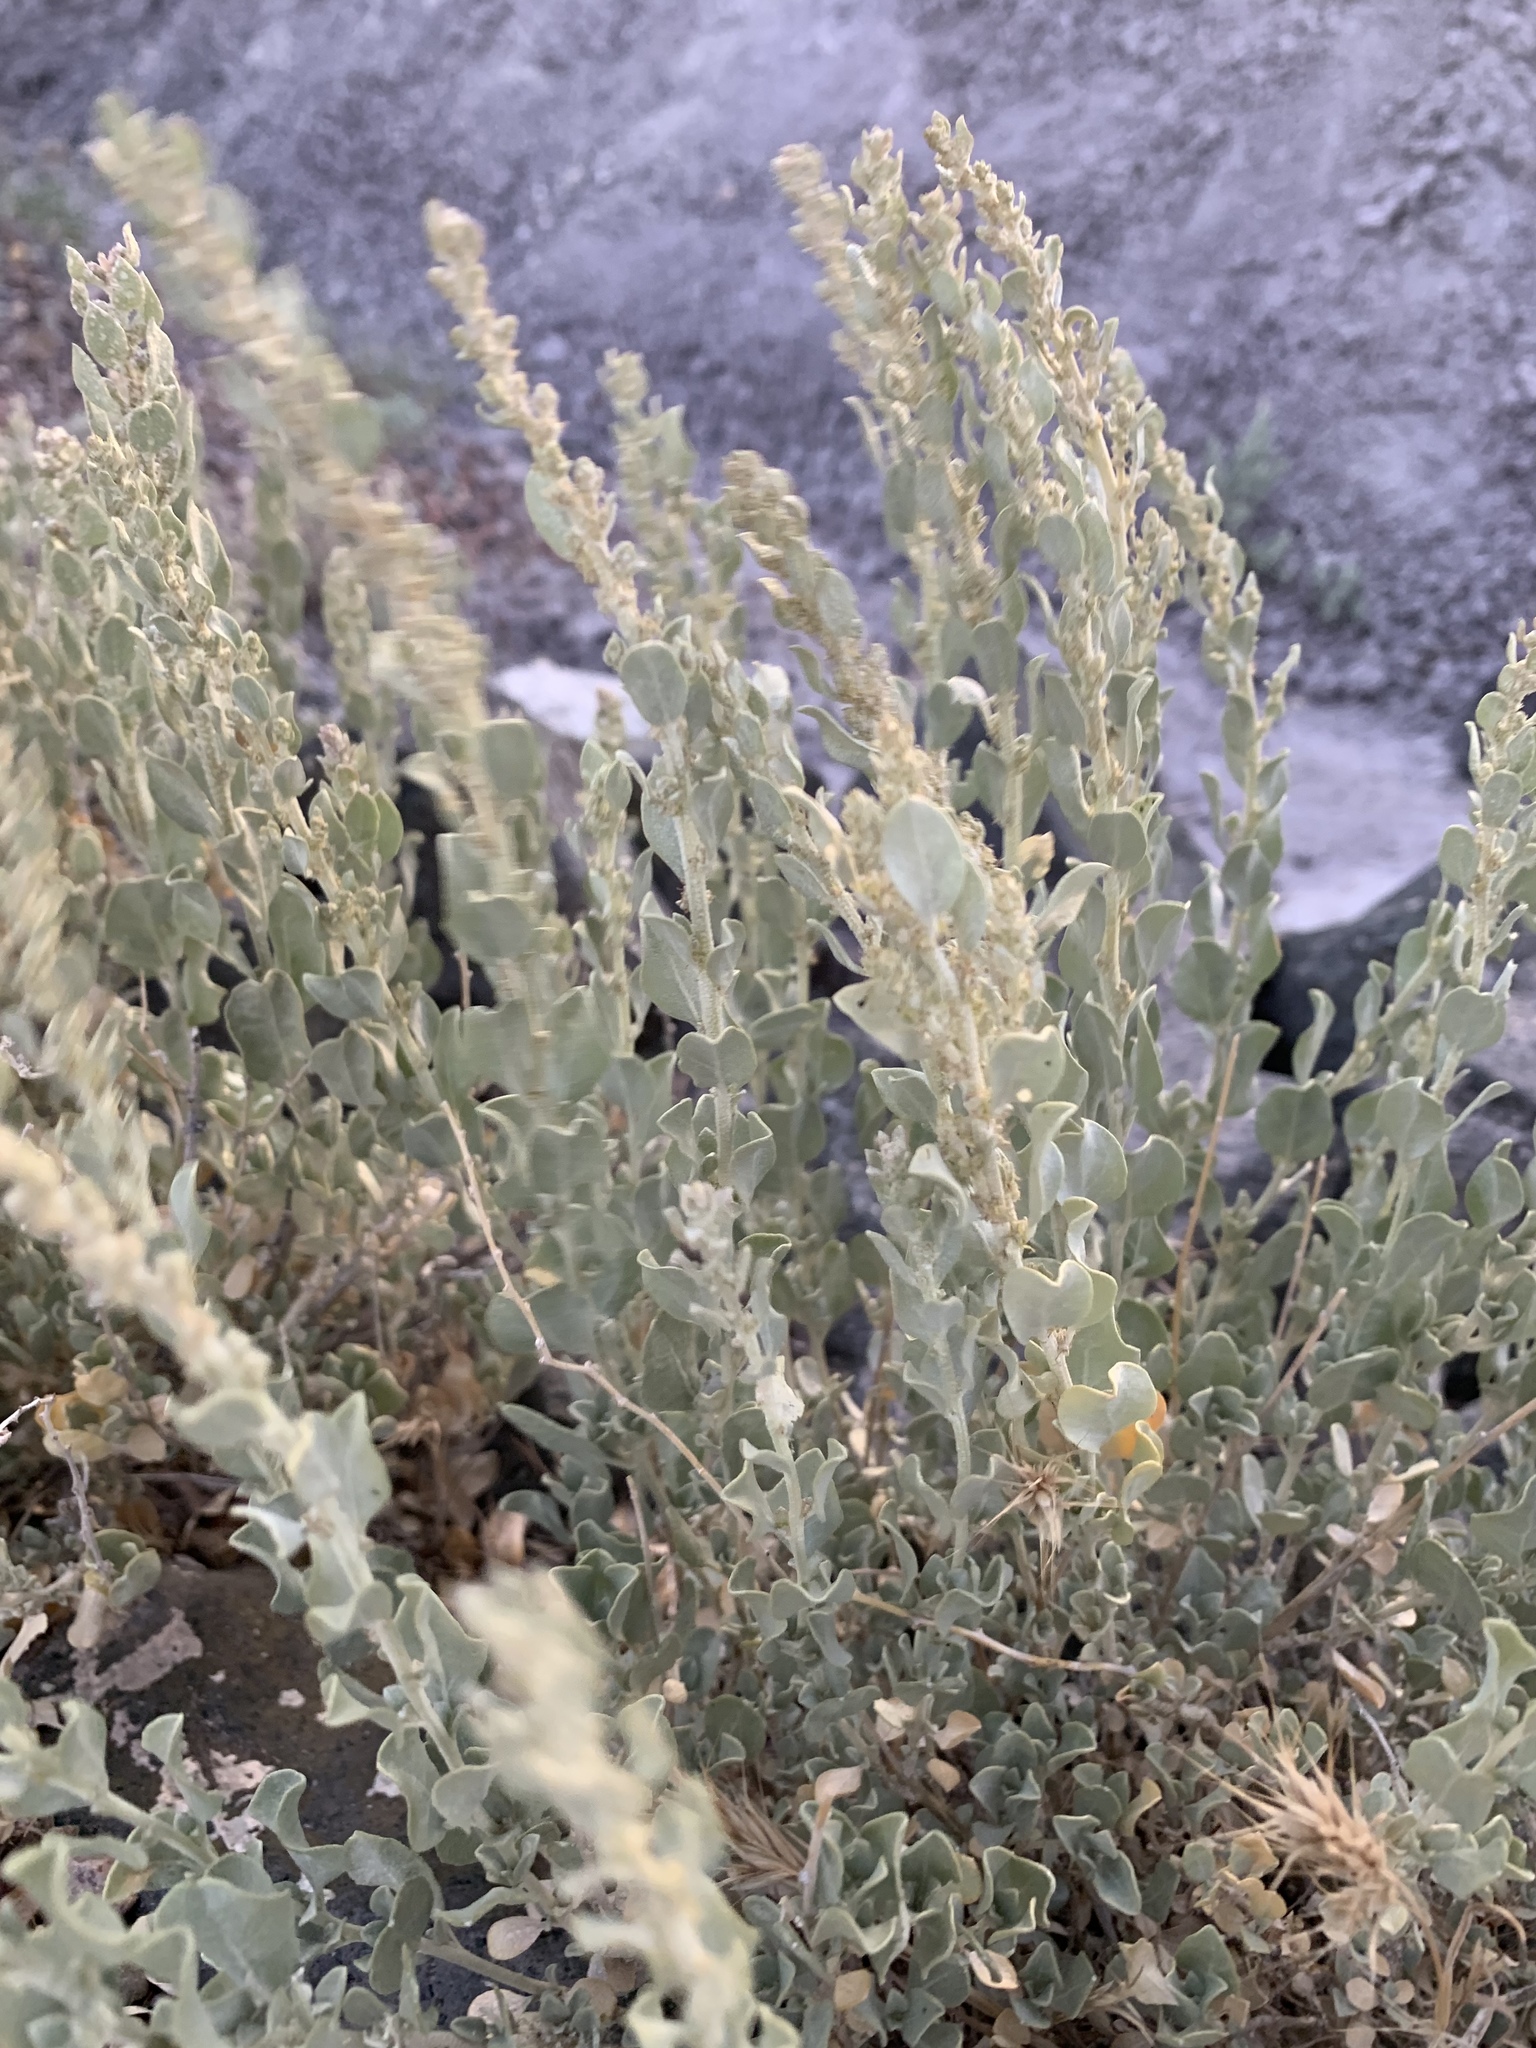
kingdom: Plantae
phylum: Tracheophyta
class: Magnoliopsida
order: Caryophyllales
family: Amaranthaceae
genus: Atriplex
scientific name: Atriplex confertifolia
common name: Shadscale
